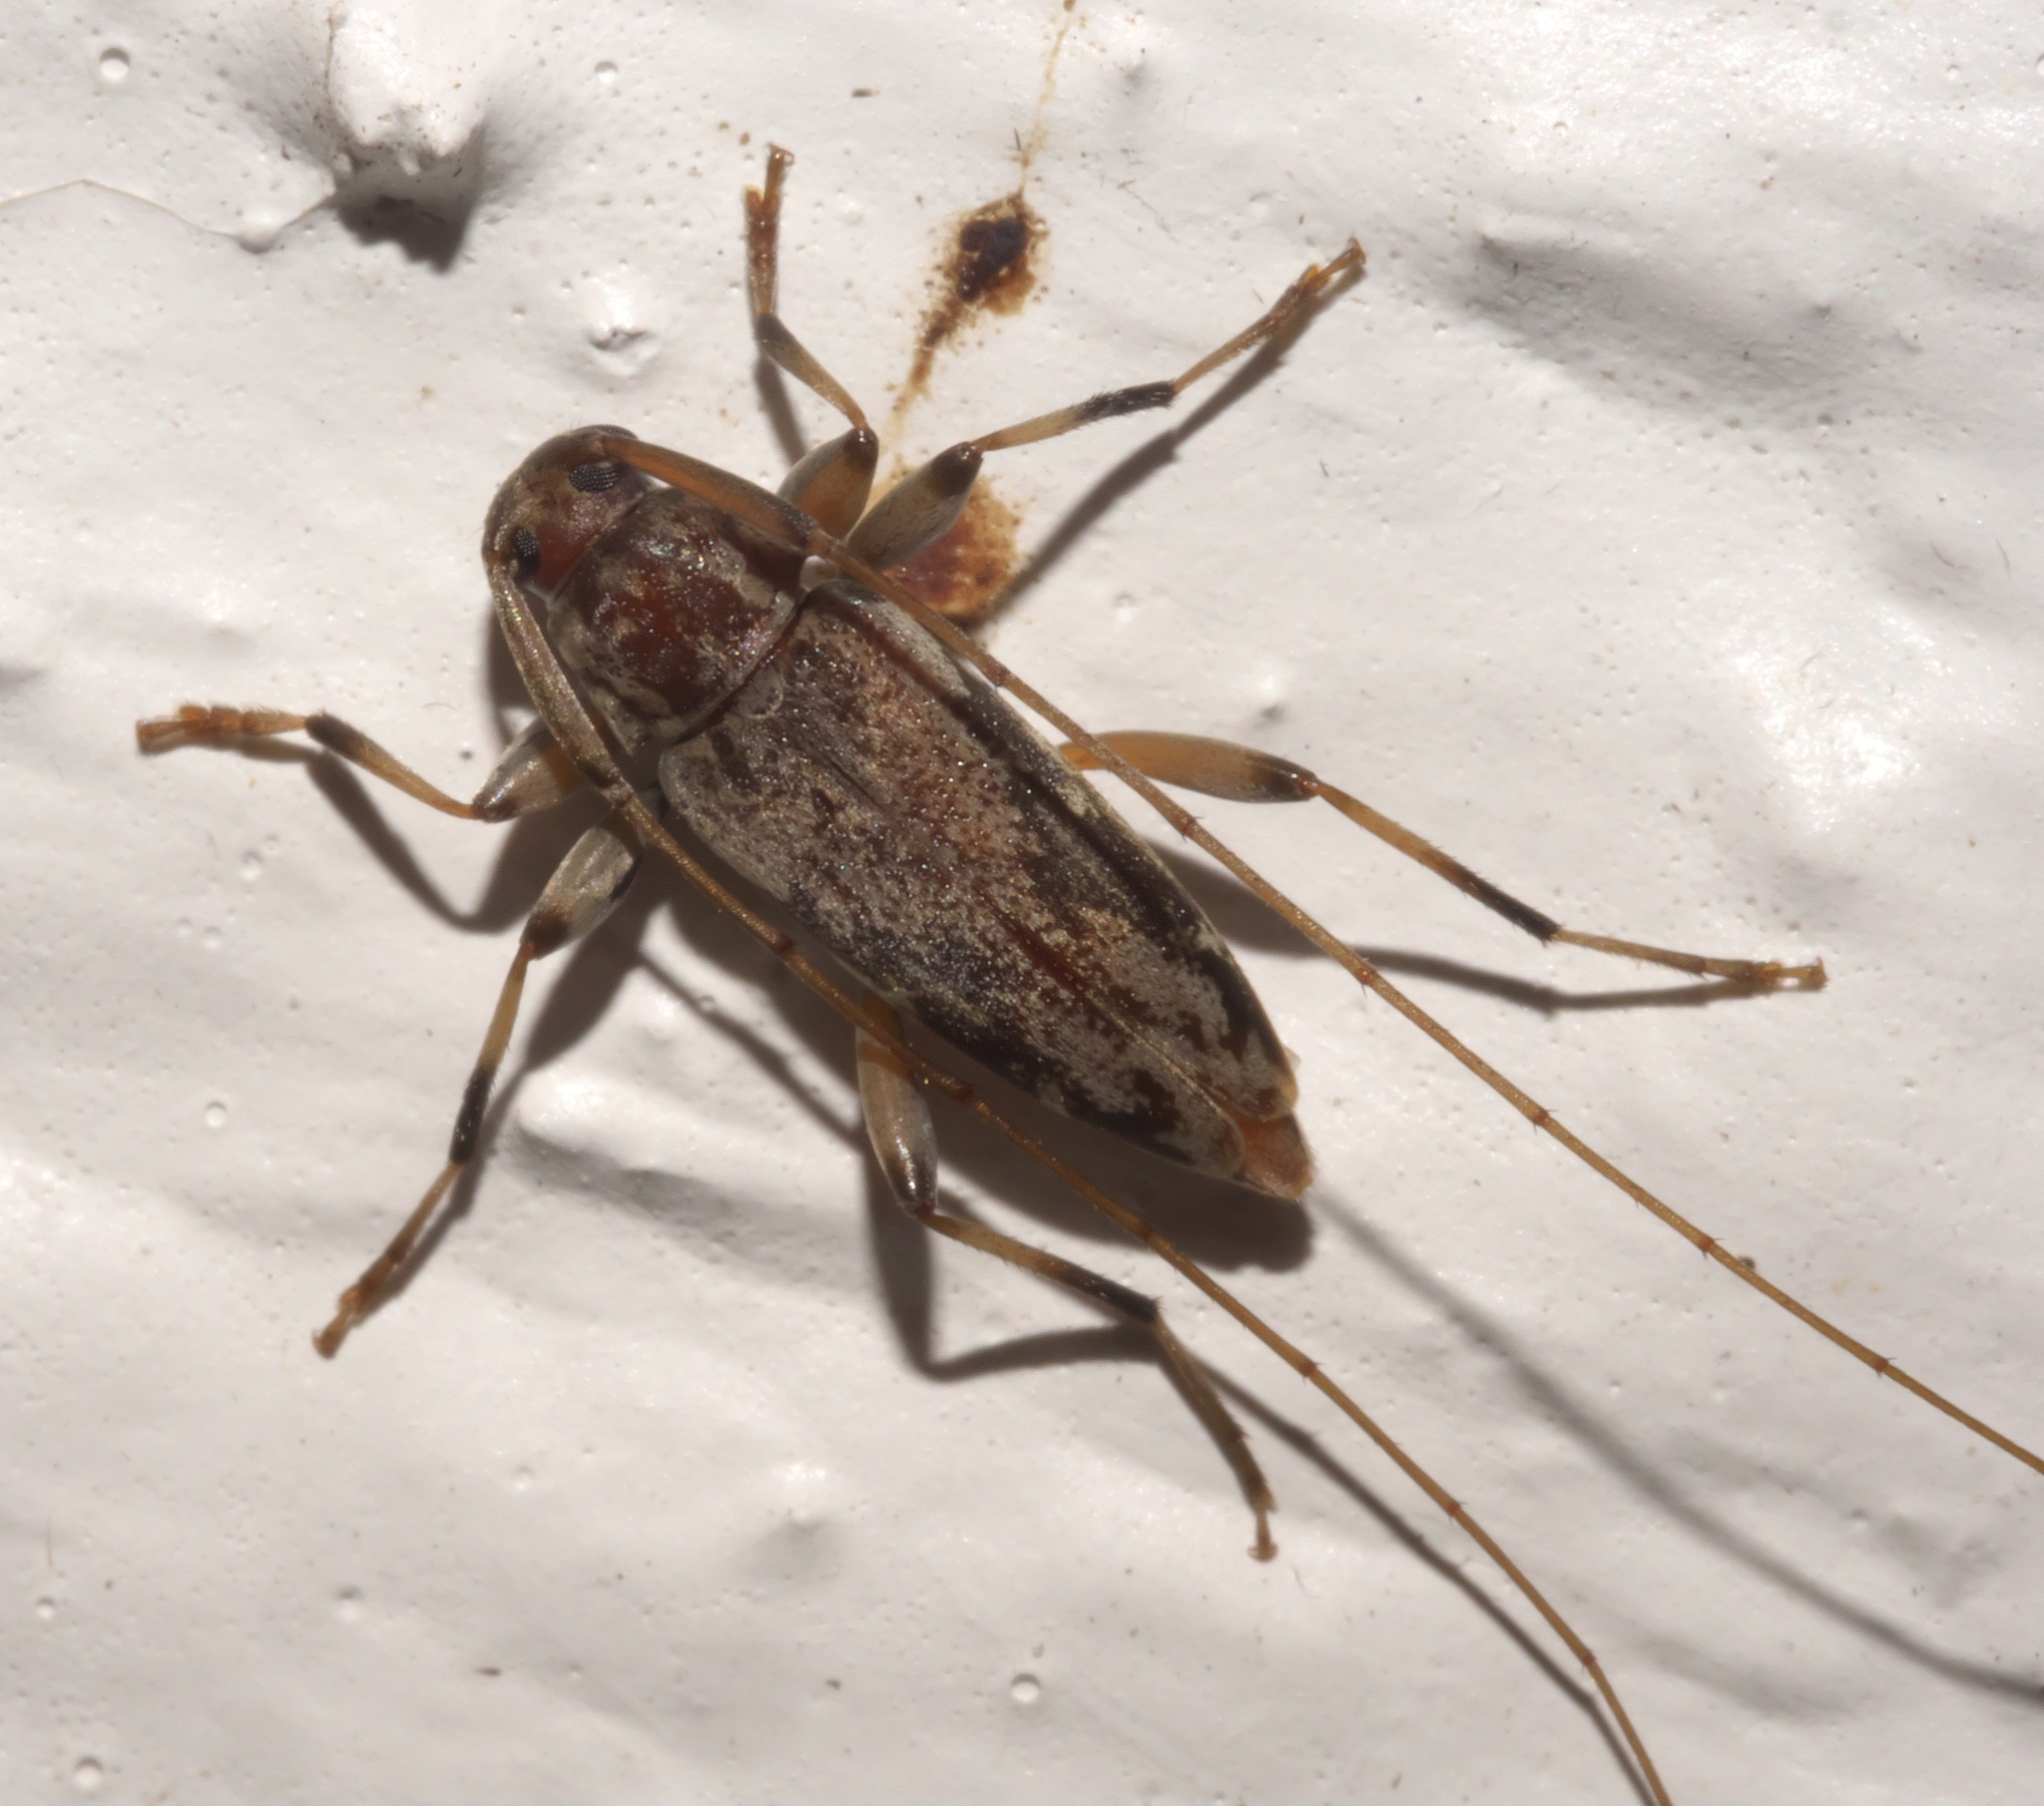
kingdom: Animalia
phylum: Arthropoda
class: Insecta
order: Coleoptera
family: Cerambycidae
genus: Lepturges
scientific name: Lepturges angulatus
